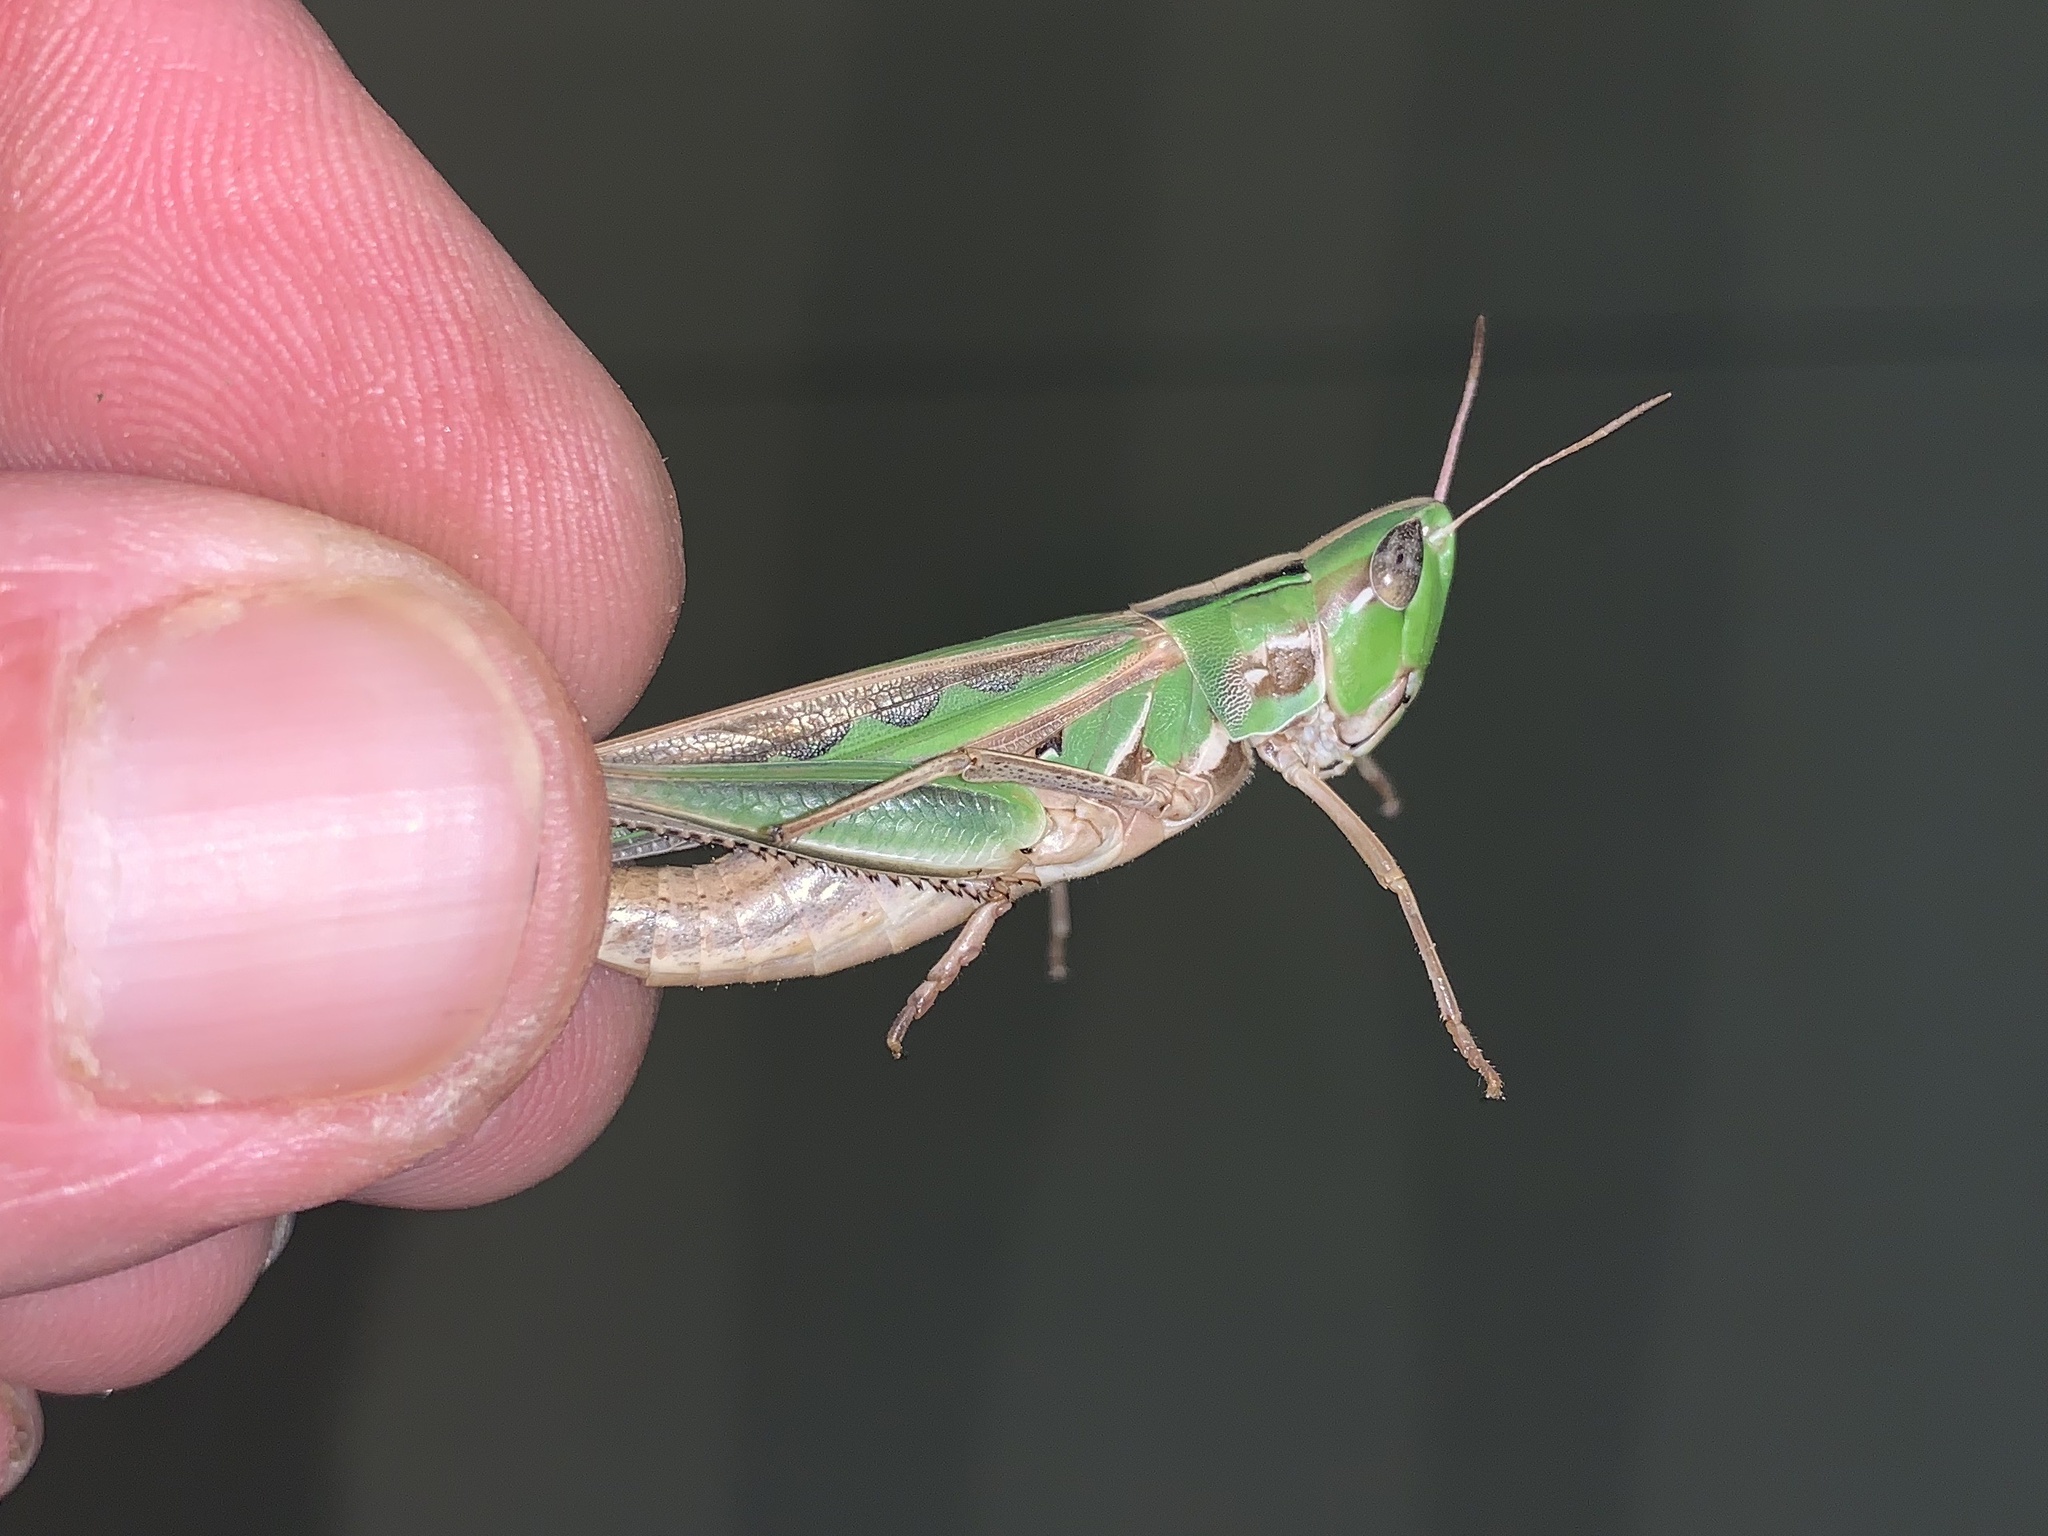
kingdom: Animalia
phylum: Arthropoda
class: Insecta
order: Orthoptera
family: Acrididae
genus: Syrbula
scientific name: Syrbula admirabilis
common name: Handsome grasshopper
